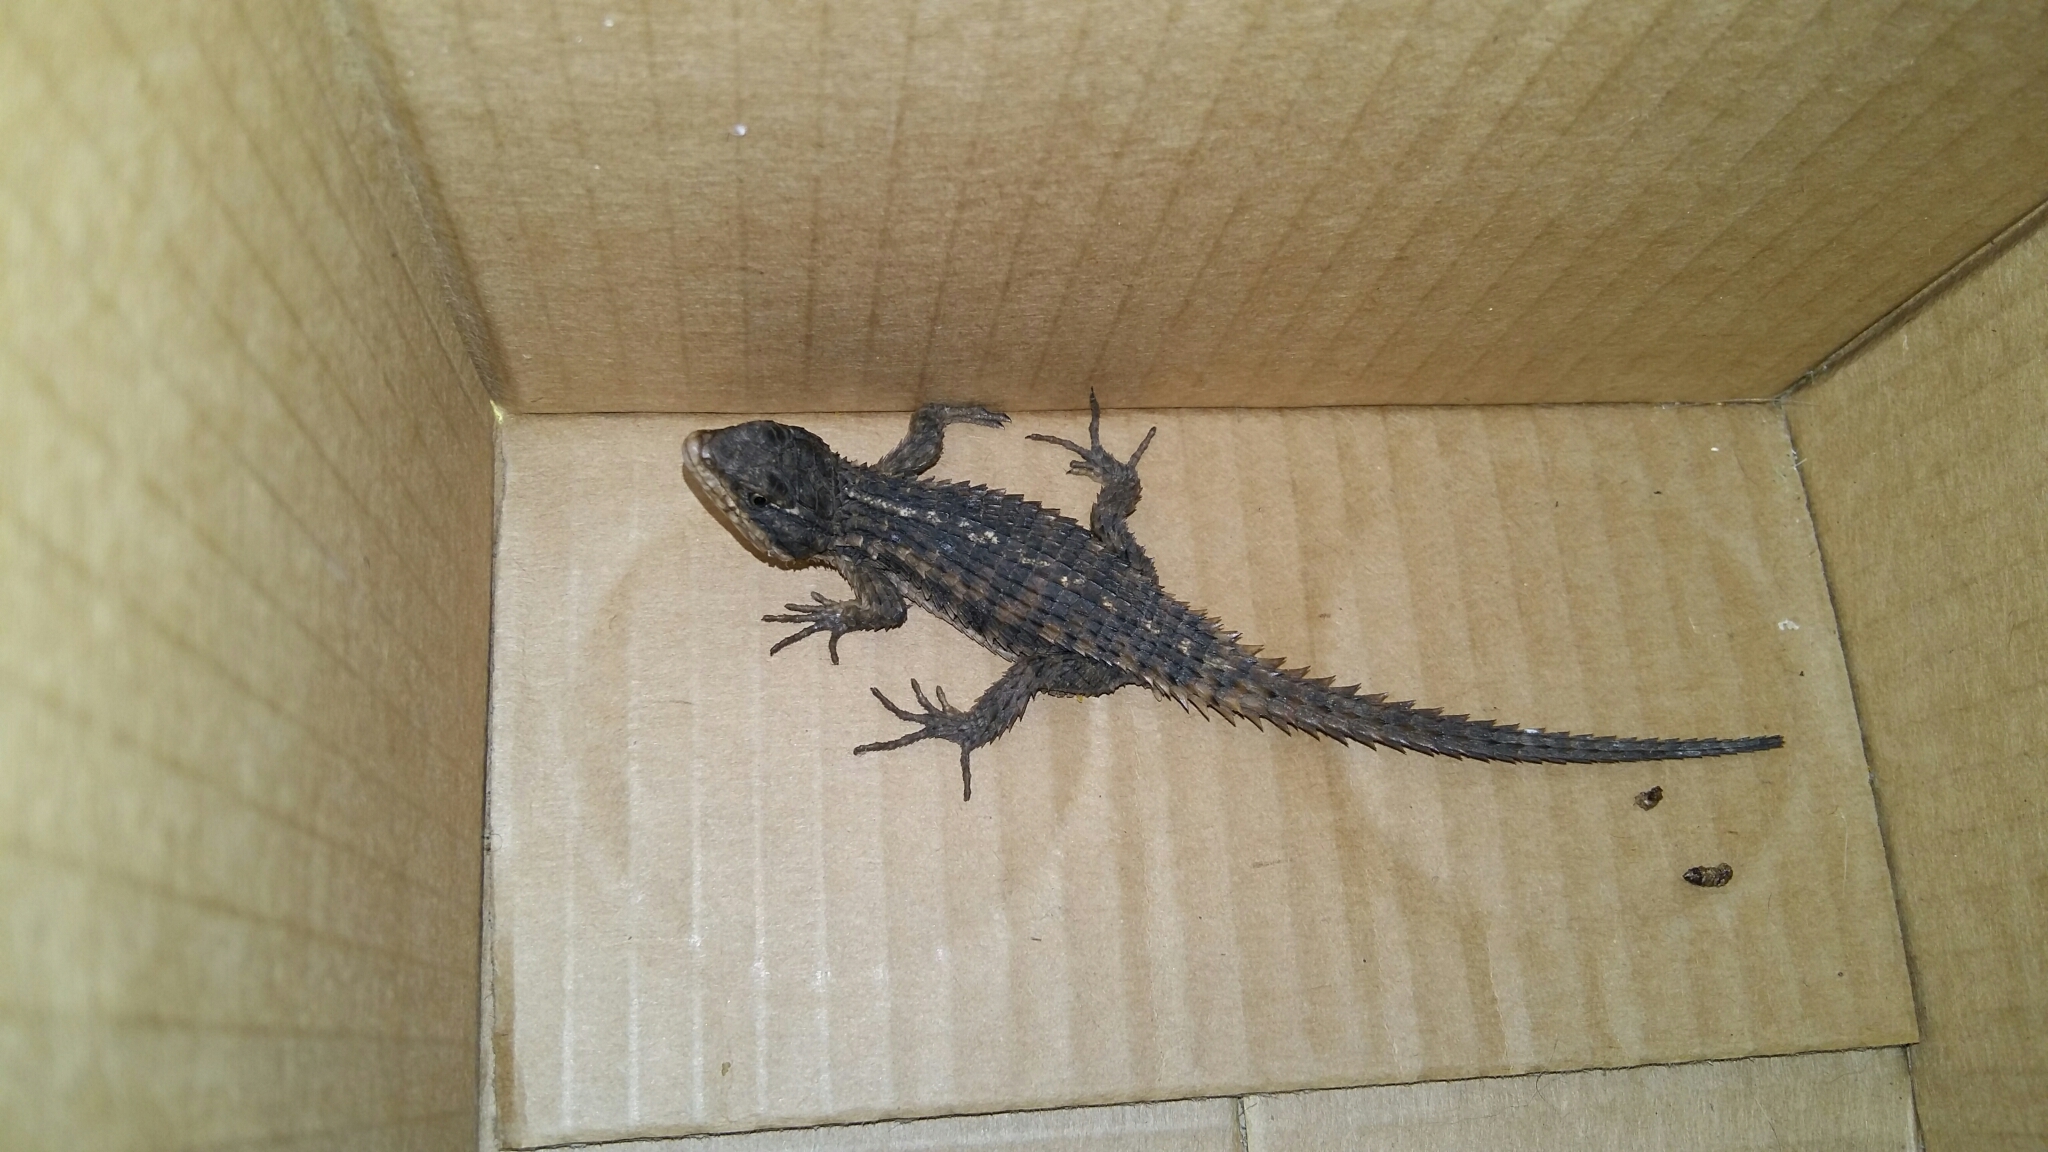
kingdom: Animalia
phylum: Chordata
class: Squamata
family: Cordylidae
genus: Cordylus
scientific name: Cordylus cordylus
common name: Cape girdled lizard
